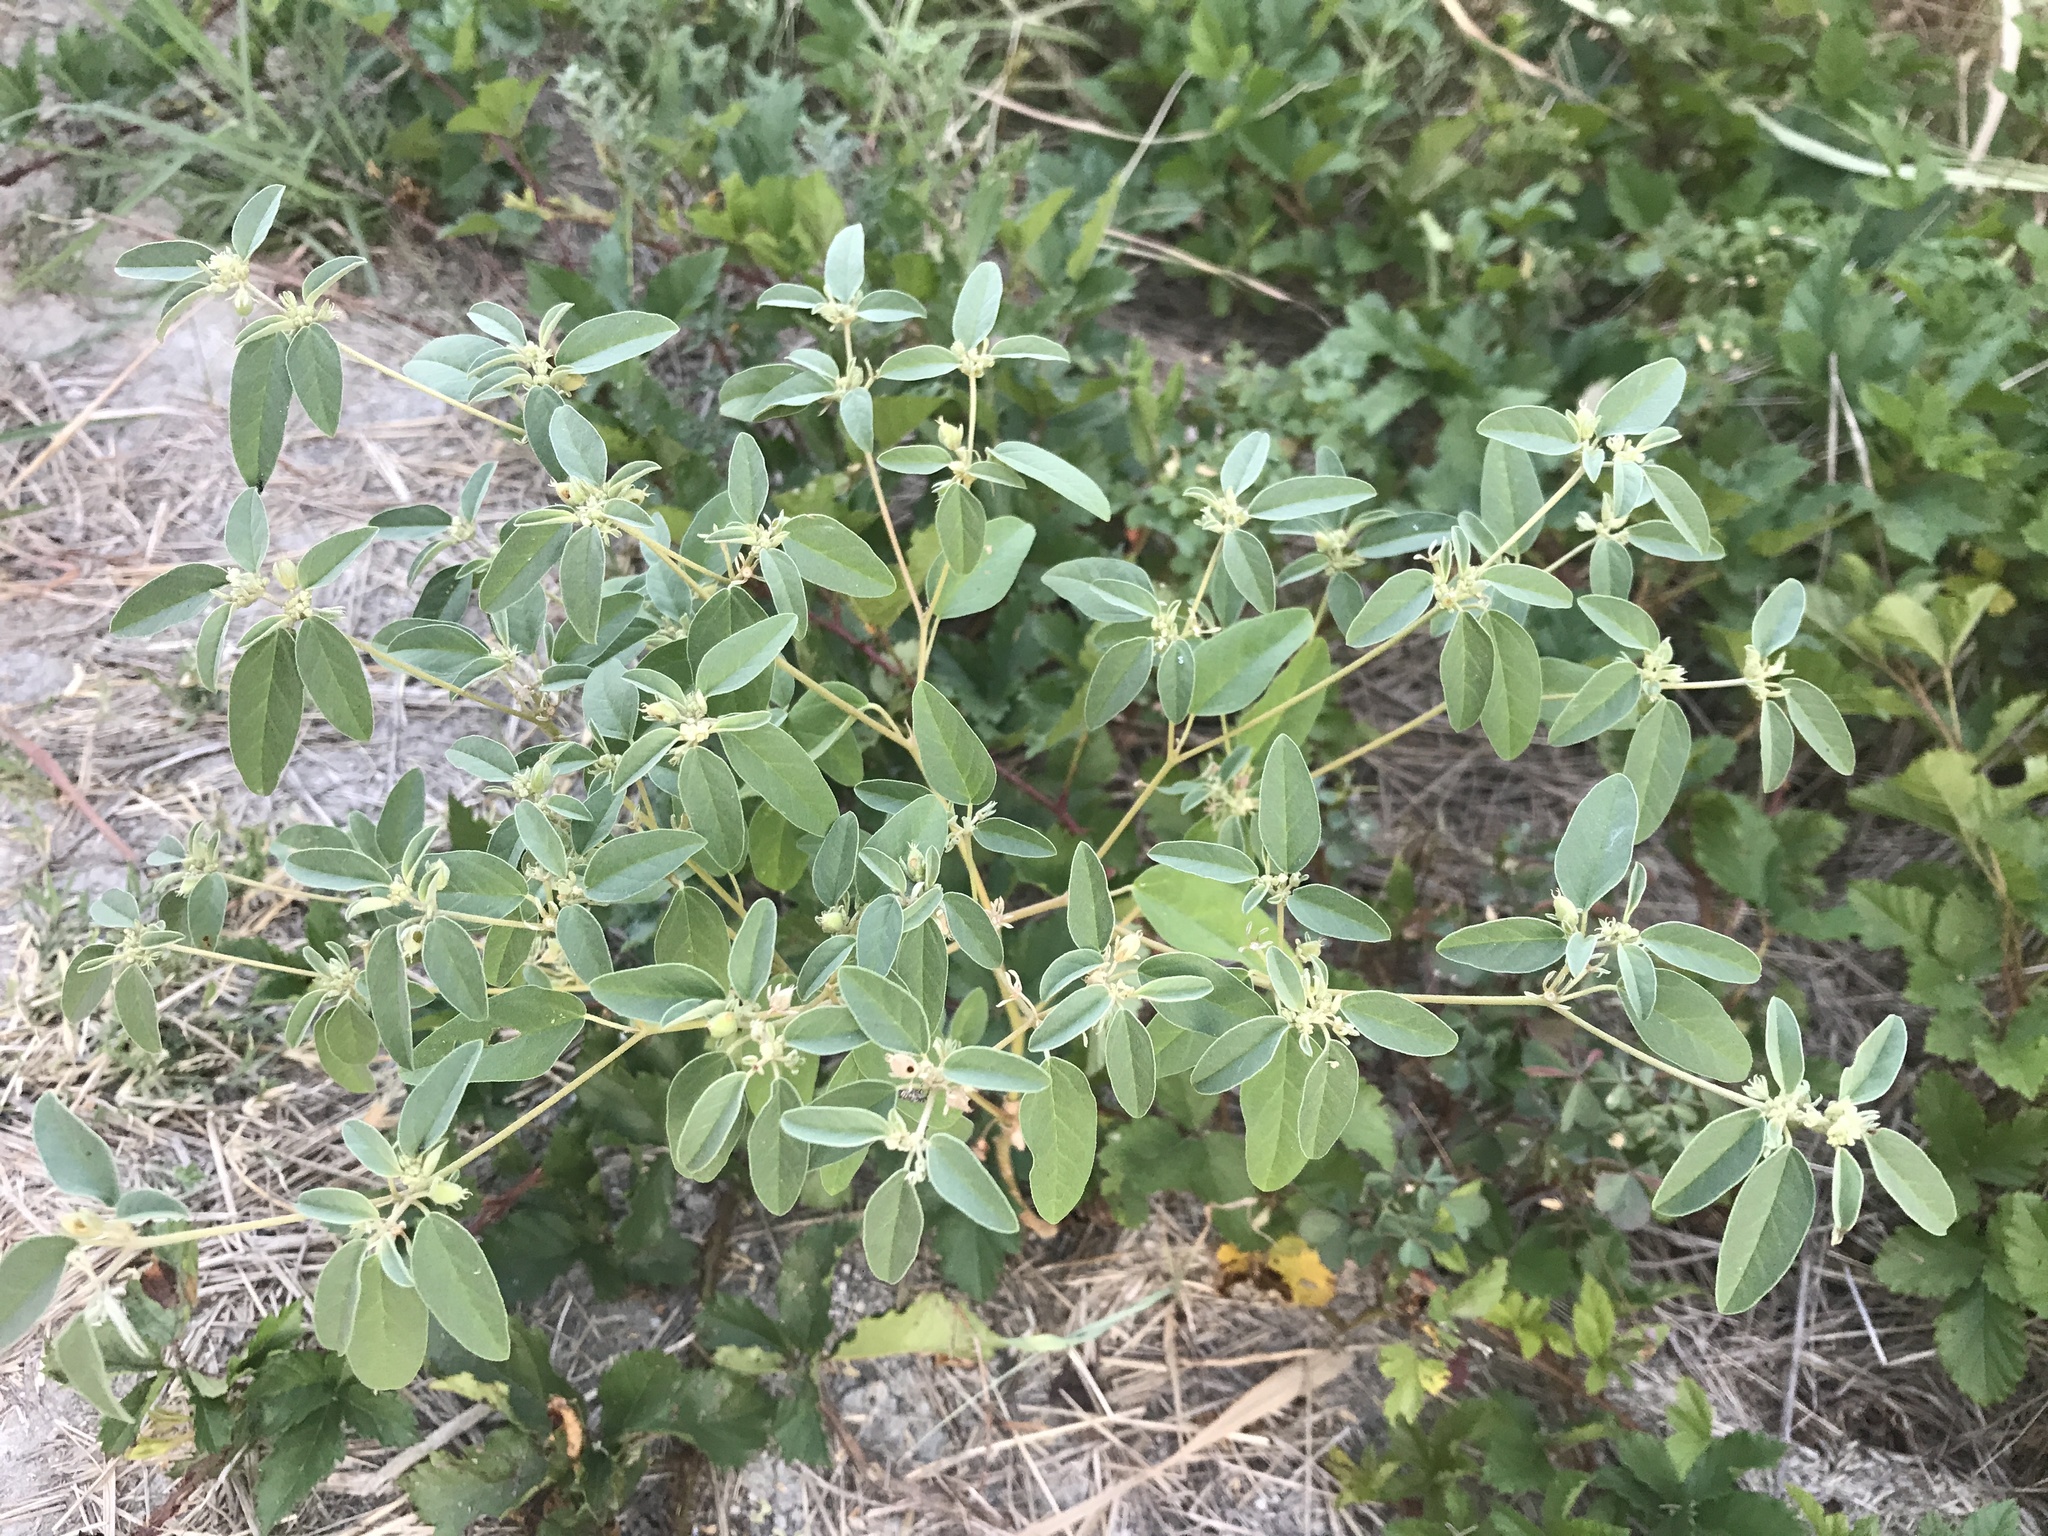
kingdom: Plantae
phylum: Tracheophyta
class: Magnoliopsida
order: Malpighiales
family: Euphorbiaceae
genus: Croton
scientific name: Croton monanthogynus
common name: One-seed croton
